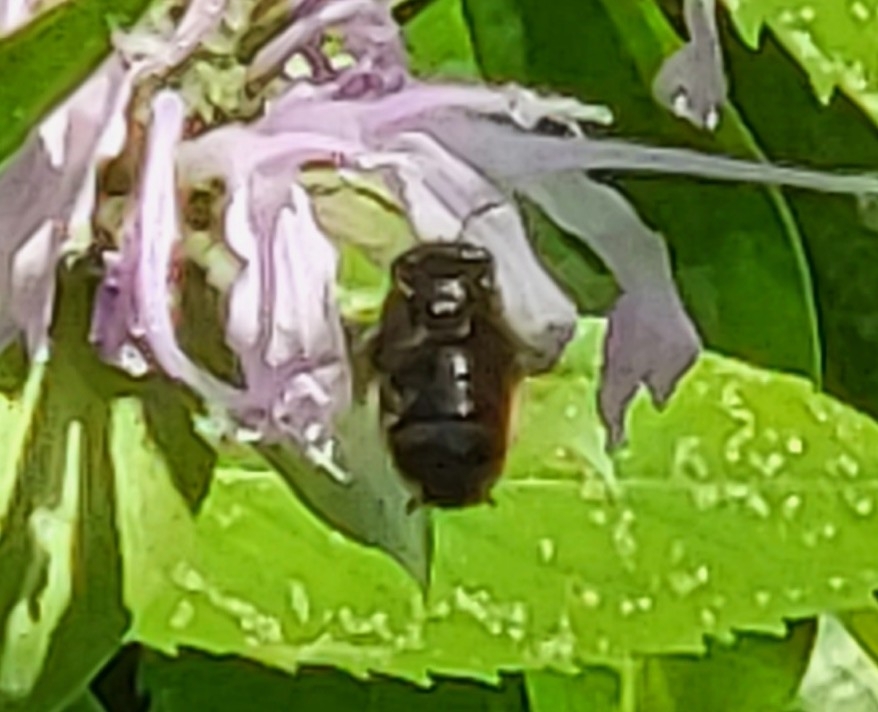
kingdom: Animalia
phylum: Arthropoda
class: Insecta
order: Hymenoptera
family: Apidae
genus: Melissodes
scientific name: Melissodes bimaculatus
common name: Two-spotted long-horned bee
